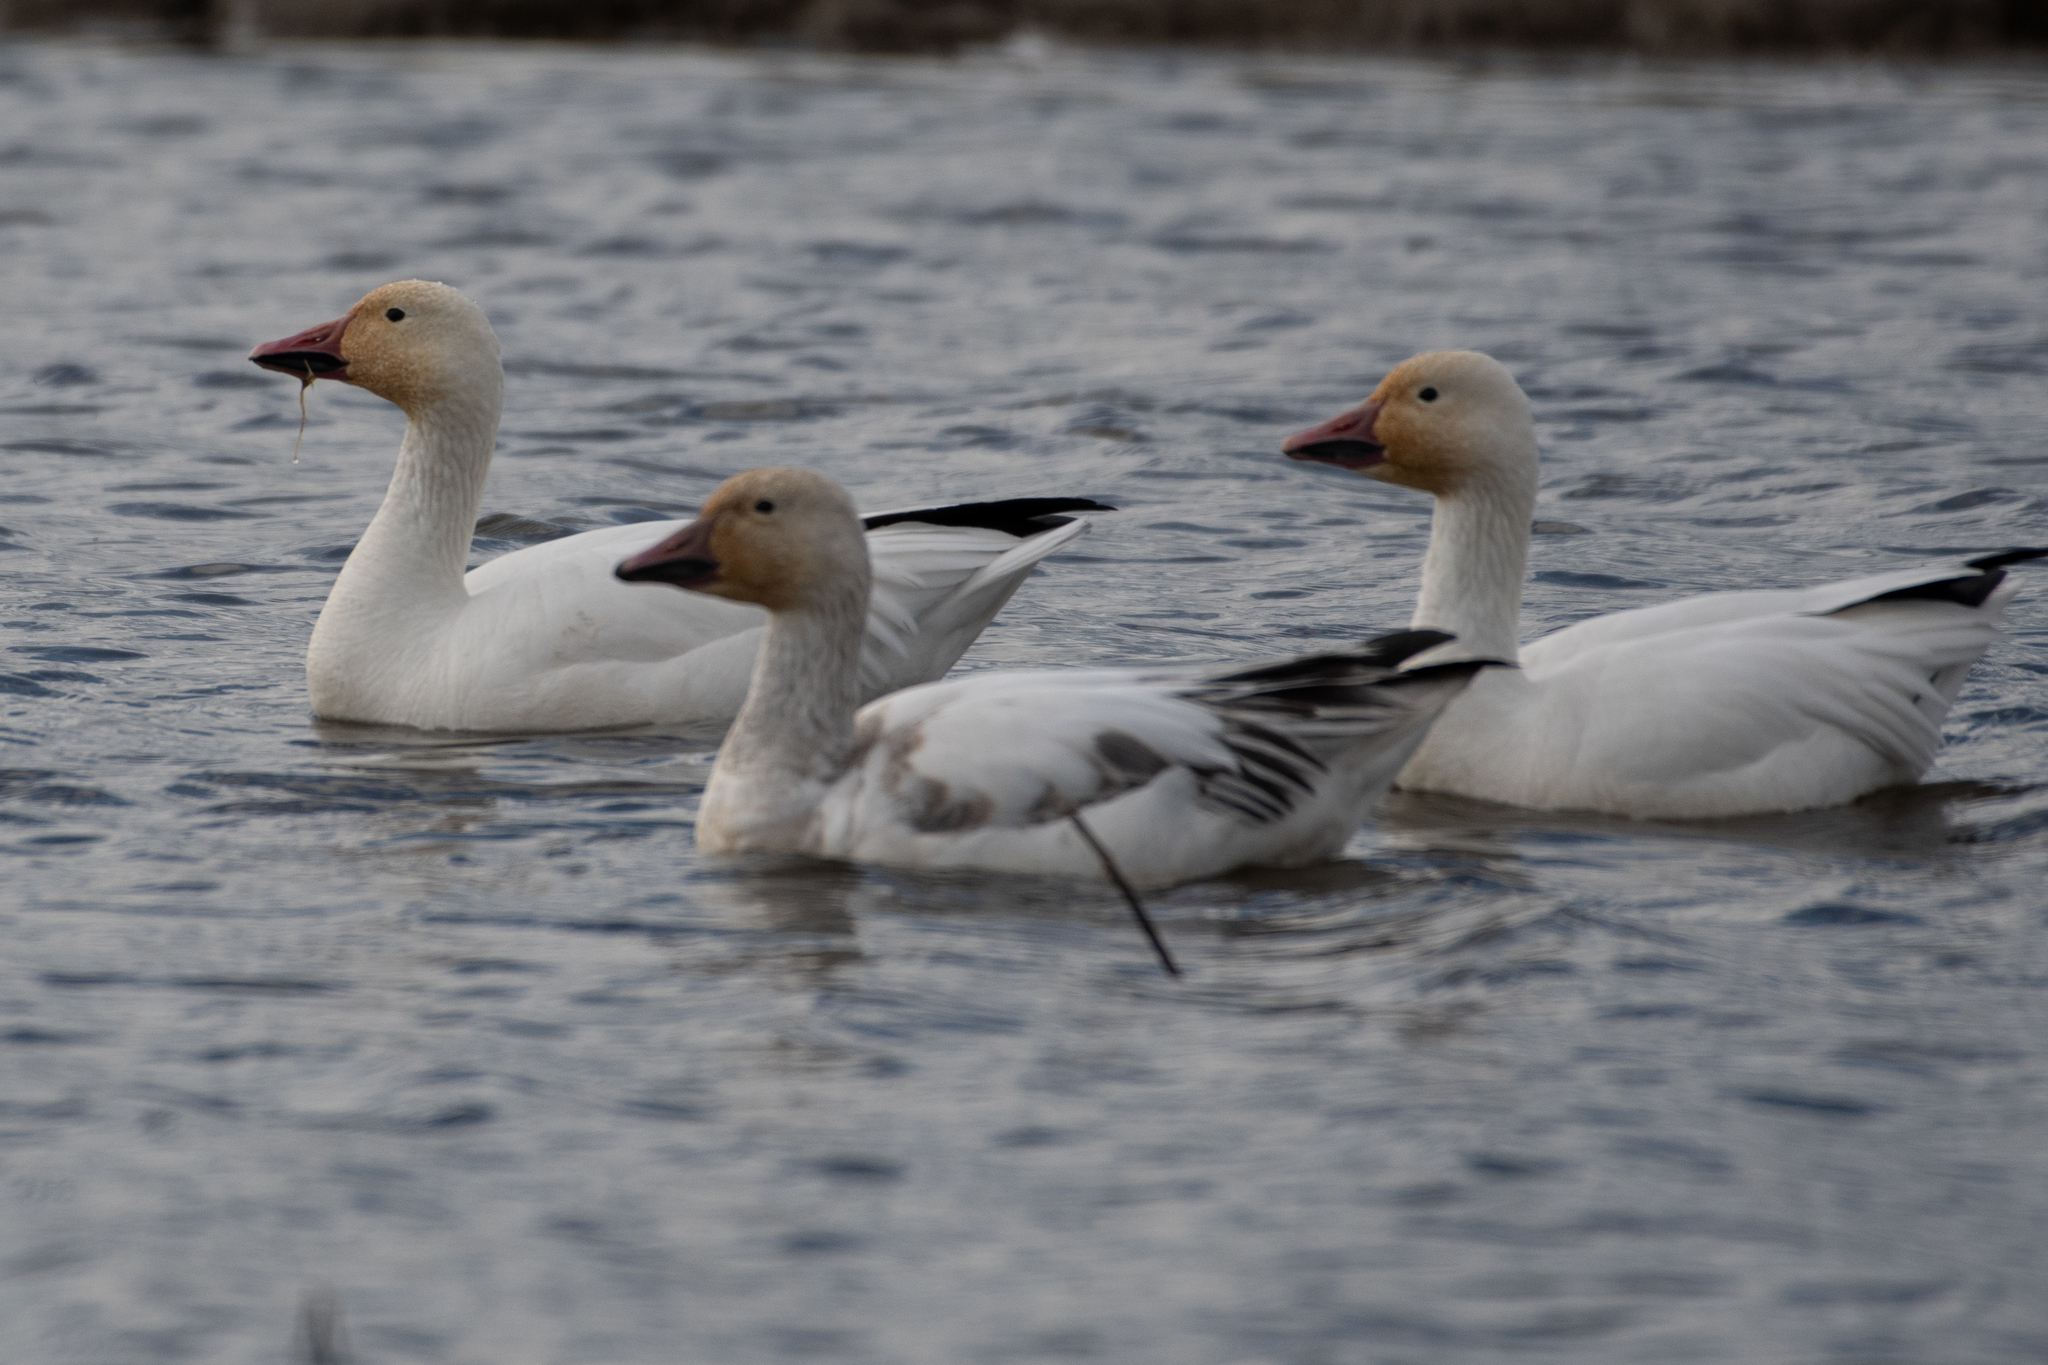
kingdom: Animalia
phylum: Chordata
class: Aves
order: Anseriformes
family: Anatidae
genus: Anser
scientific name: Anser caerulescens
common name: Snow goose
